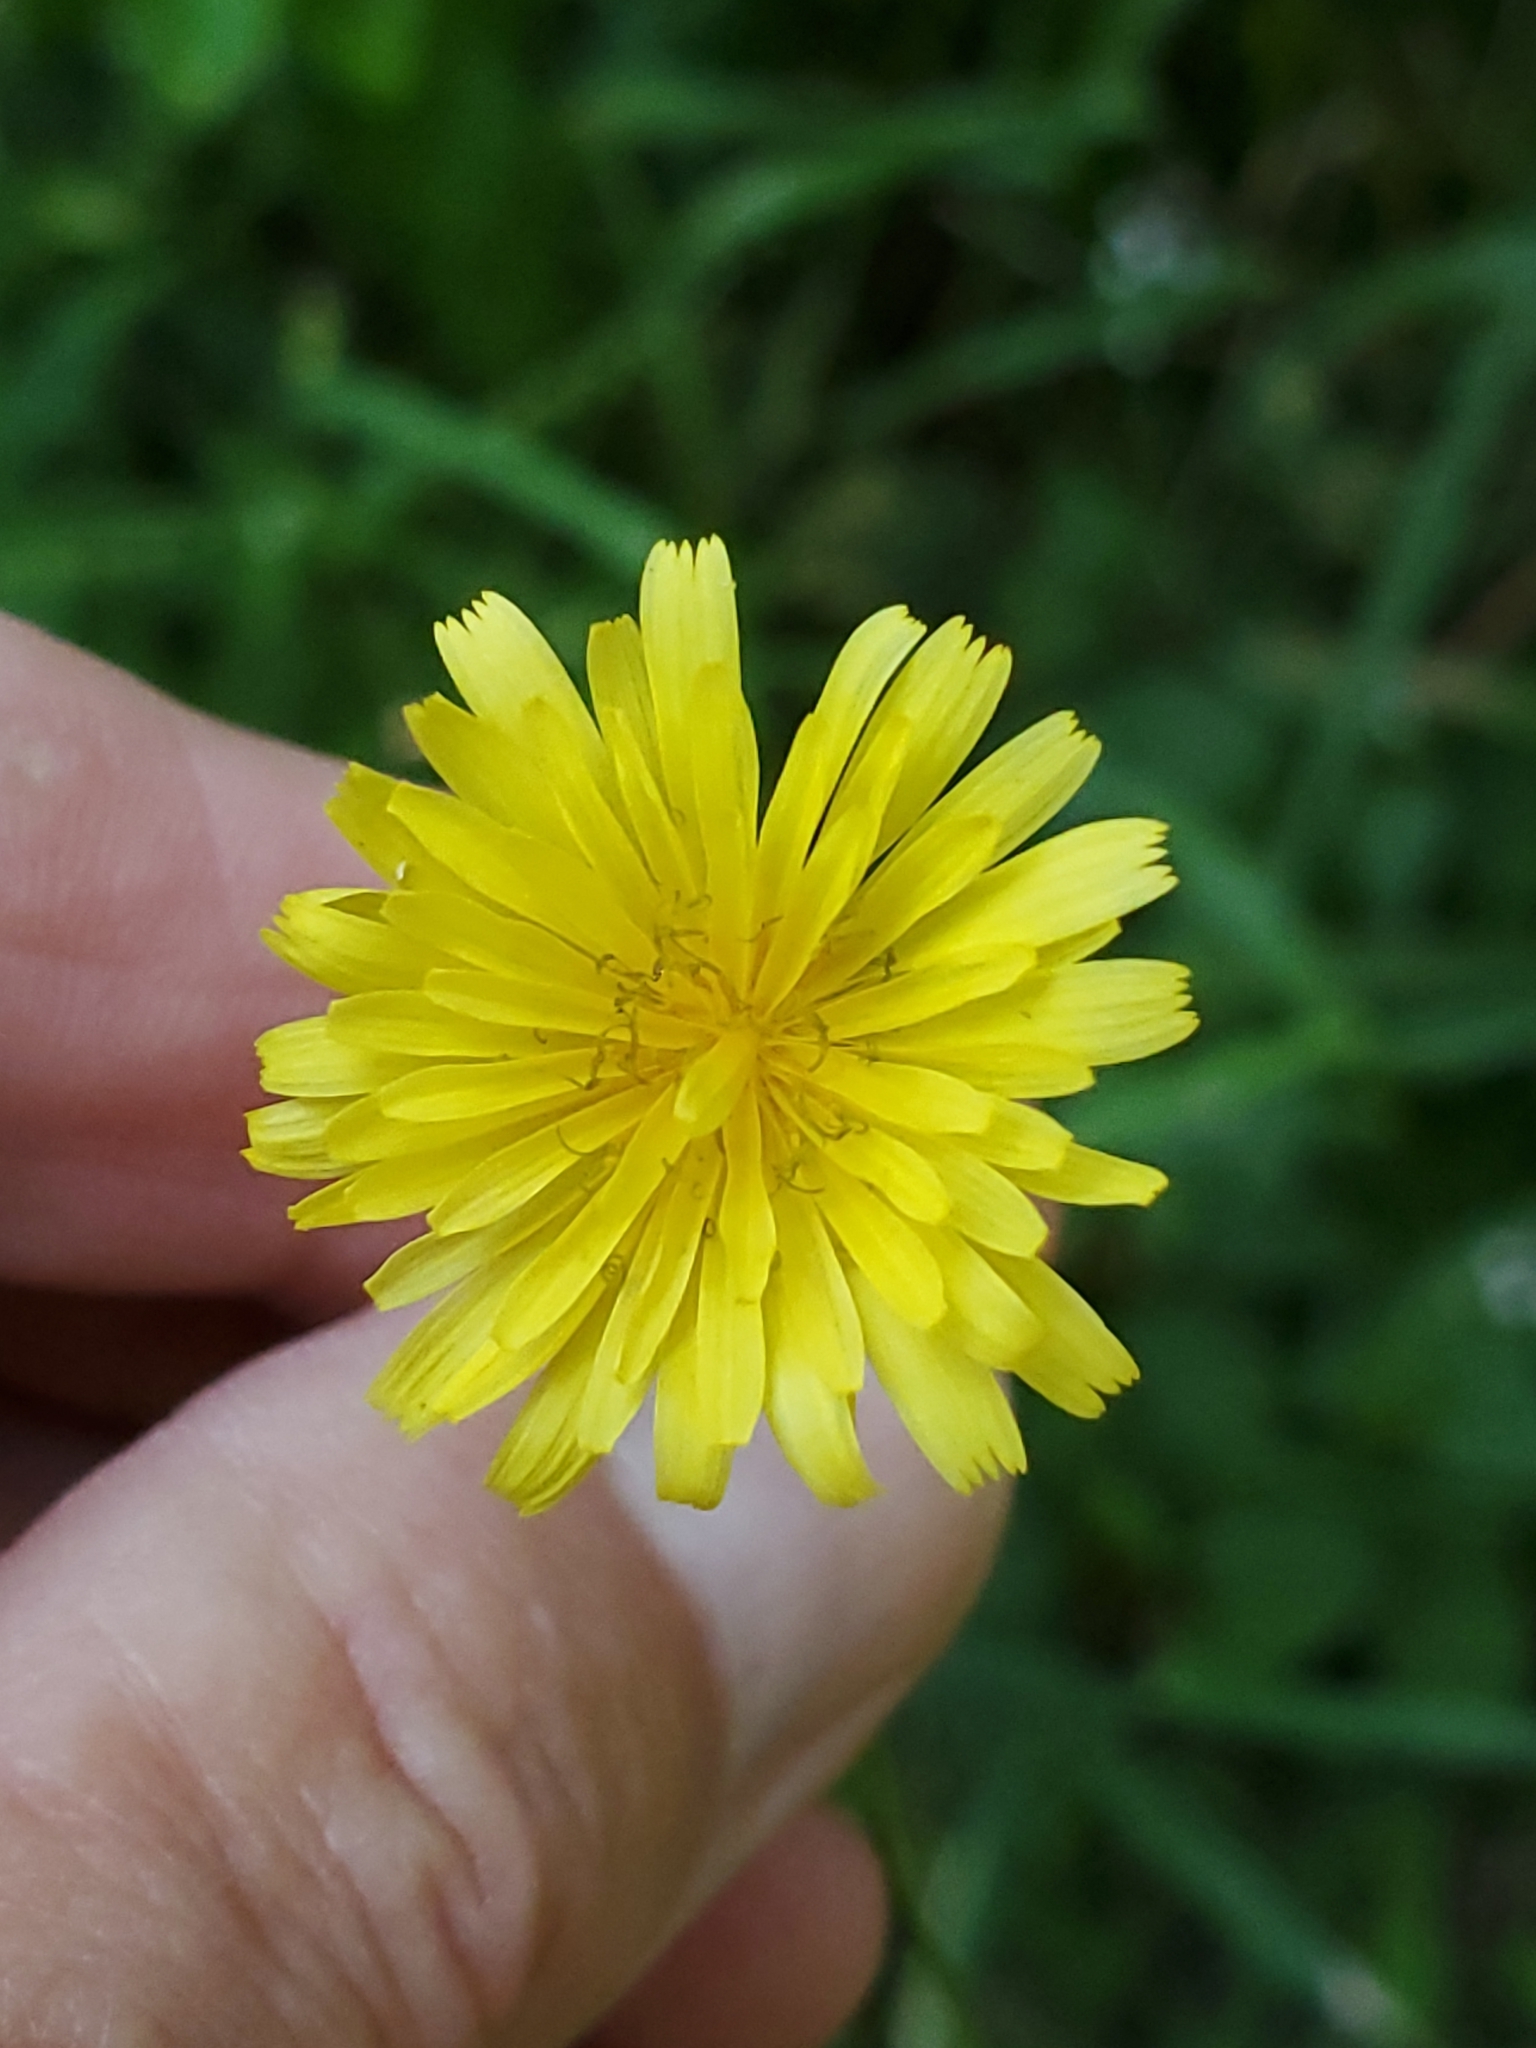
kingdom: Plantae
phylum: Tracheophyta
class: Magnoliopsida
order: Lamiales
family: Lamiaceae
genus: Leonurus
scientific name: Leonurus cardiaca
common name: Motherwort
